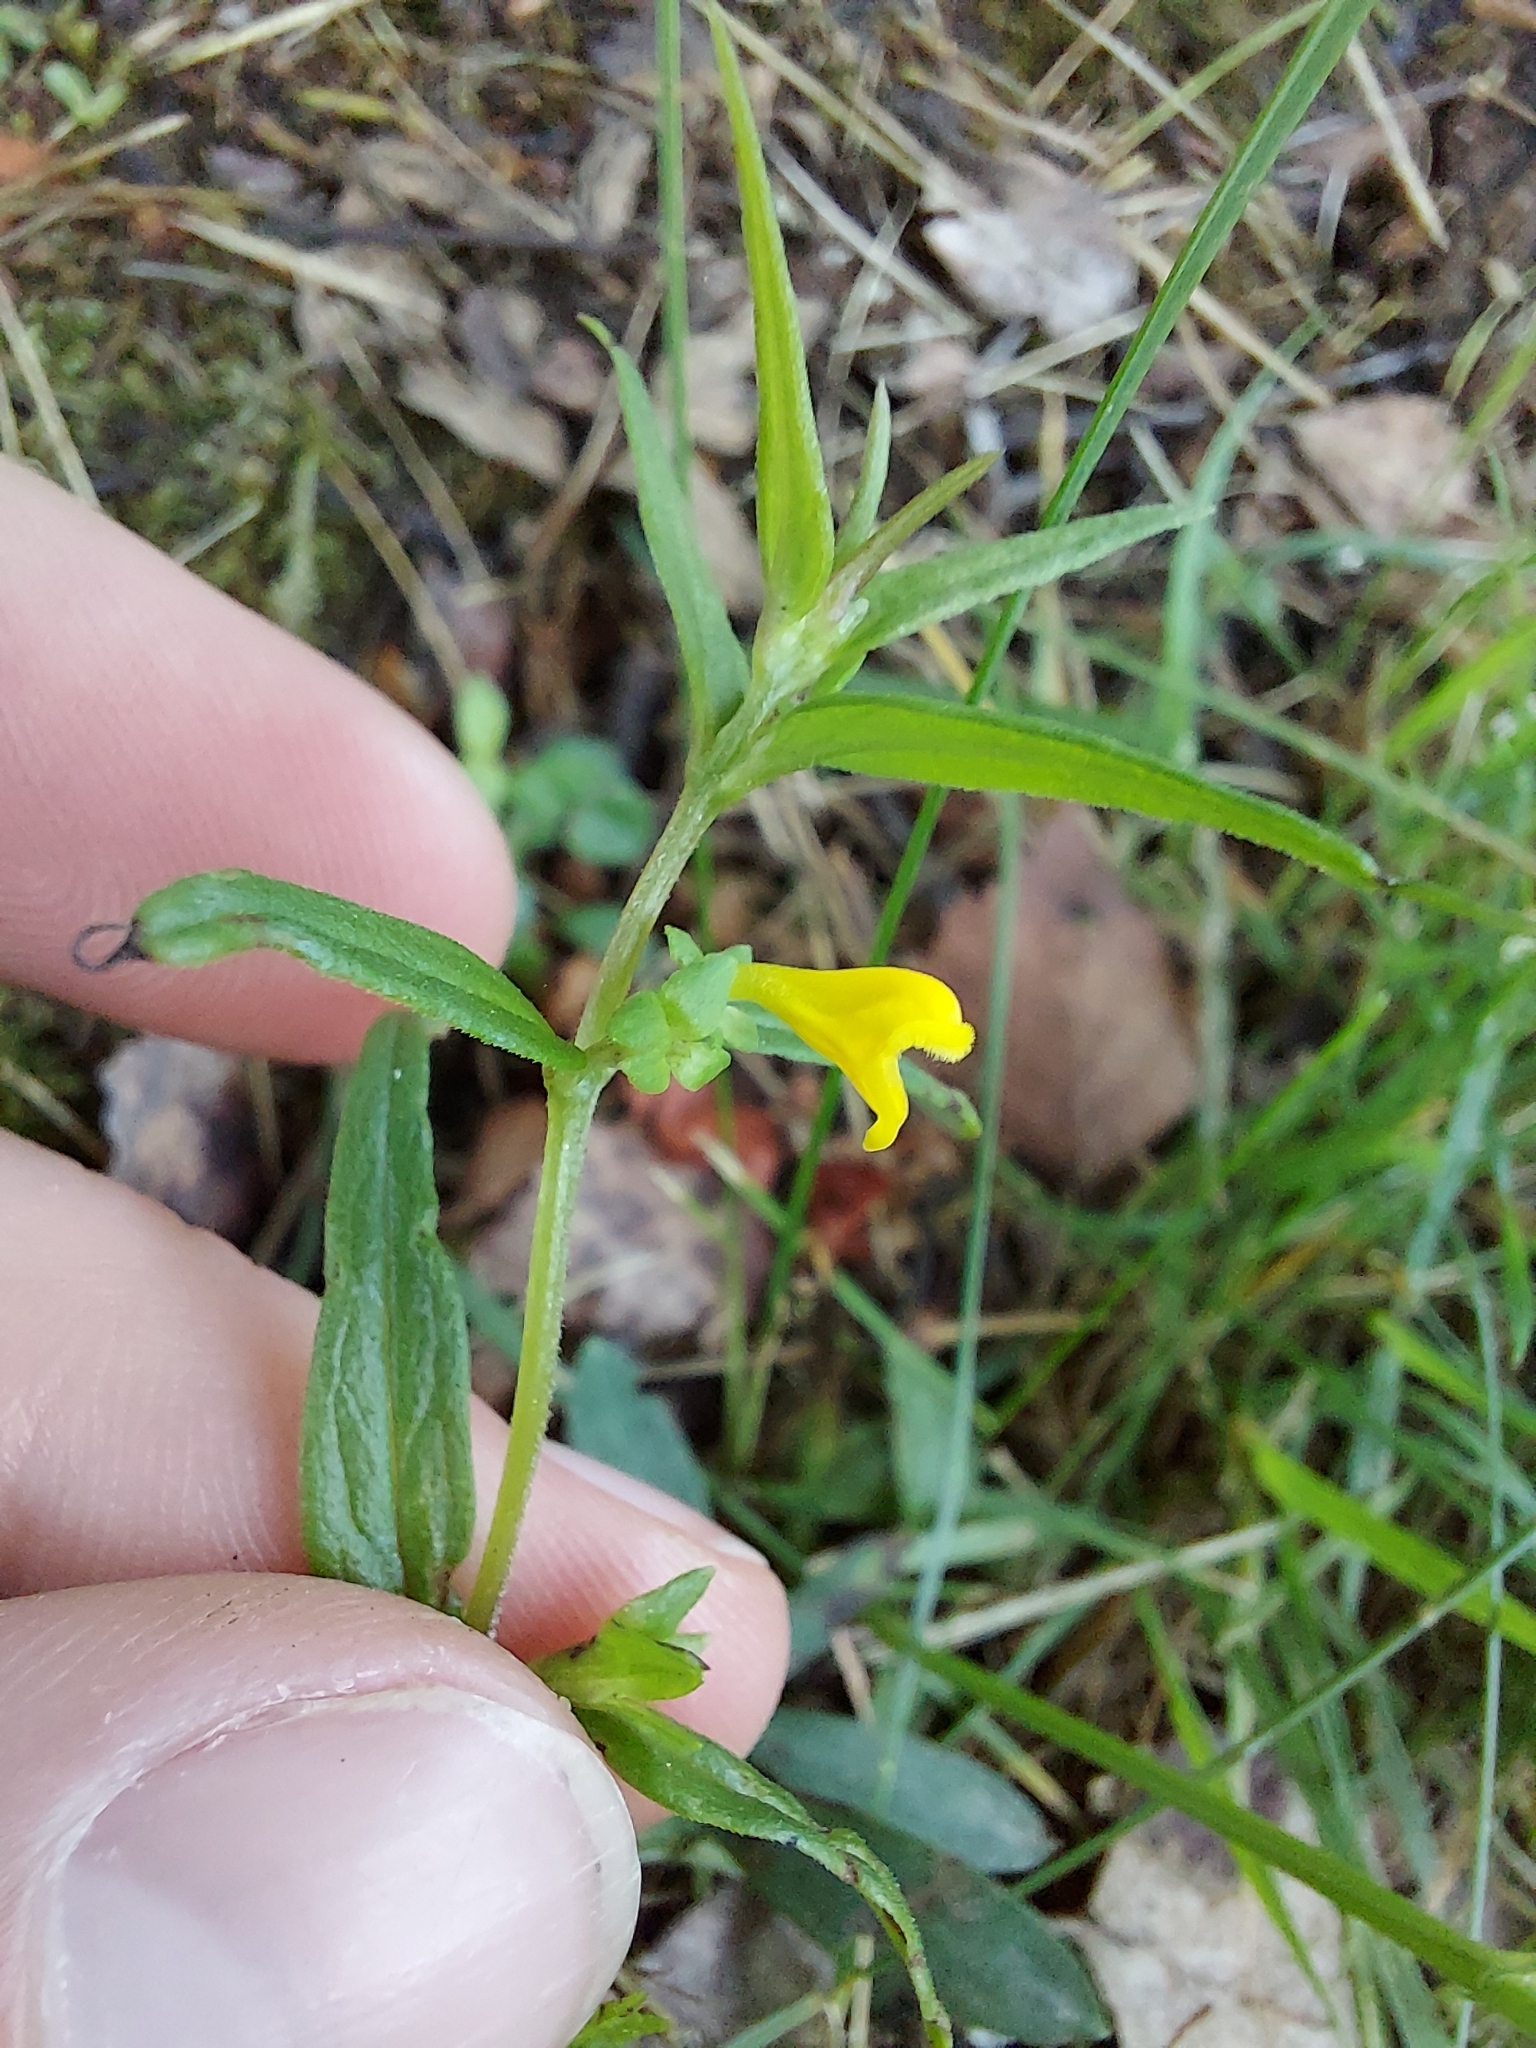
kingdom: Plantae
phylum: Tracheophyta
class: Magnoliopsida
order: Lamiales
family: Orobanchaceae
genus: Melampyrum
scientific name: Melampyrum sylvaticum
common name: Small cow-wheat
